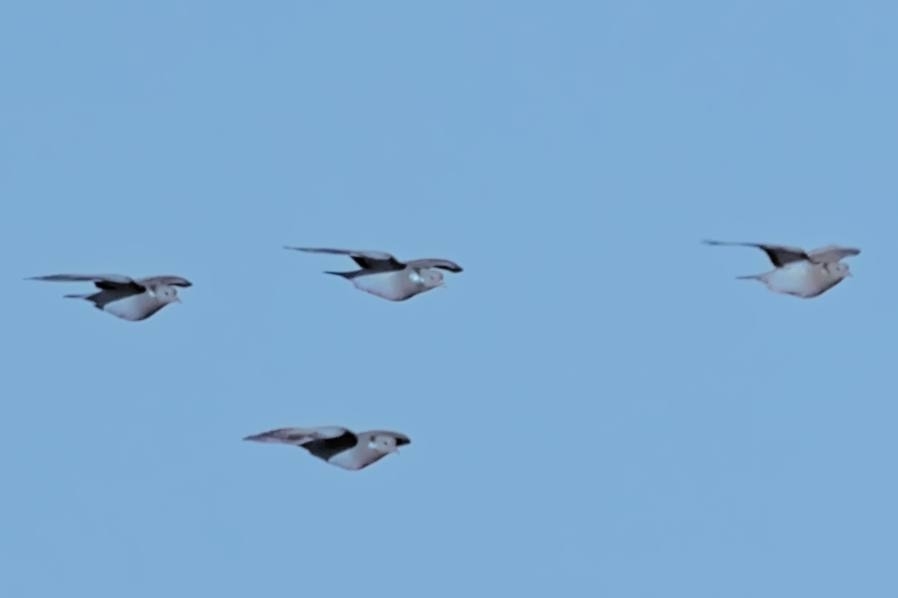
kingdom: Animalia
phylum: Chordata
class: Aves
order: Columbiformes
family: Columbidae
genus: Columba
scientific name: Columba oenas
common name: Stock dove
